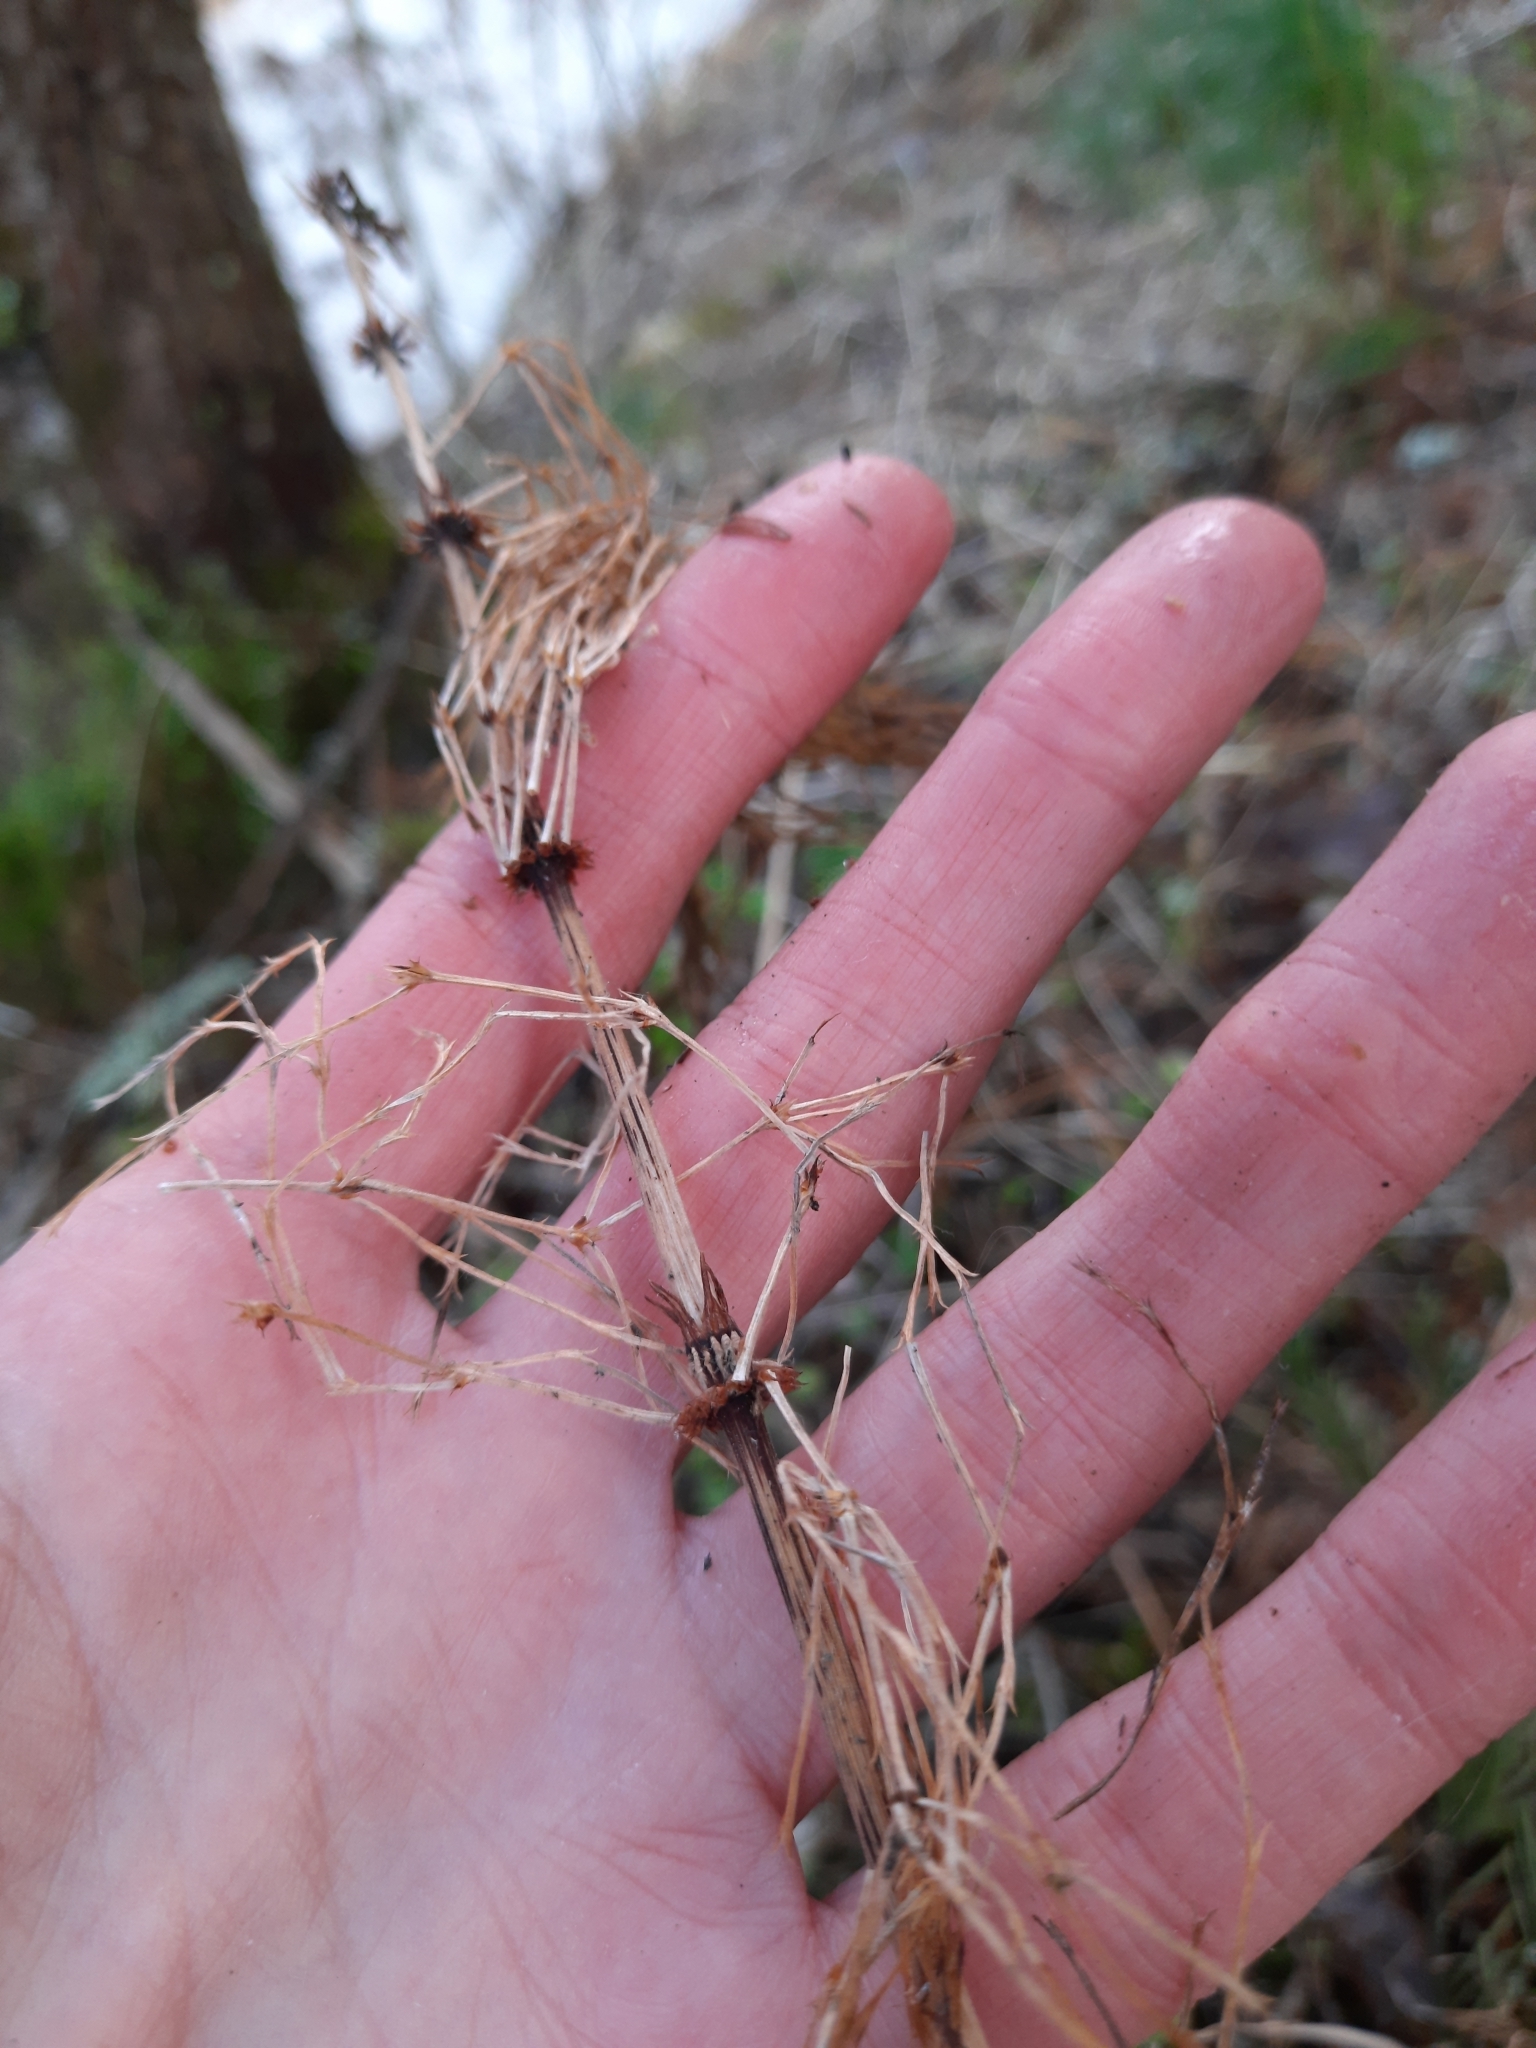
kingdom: Plantae
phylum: Tracheophyta
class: Polypodiopsida
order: Equisetales
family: Equisetaceae
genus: Equisetum
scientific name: Equisetum sylvaticum
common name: Wood horsetail
